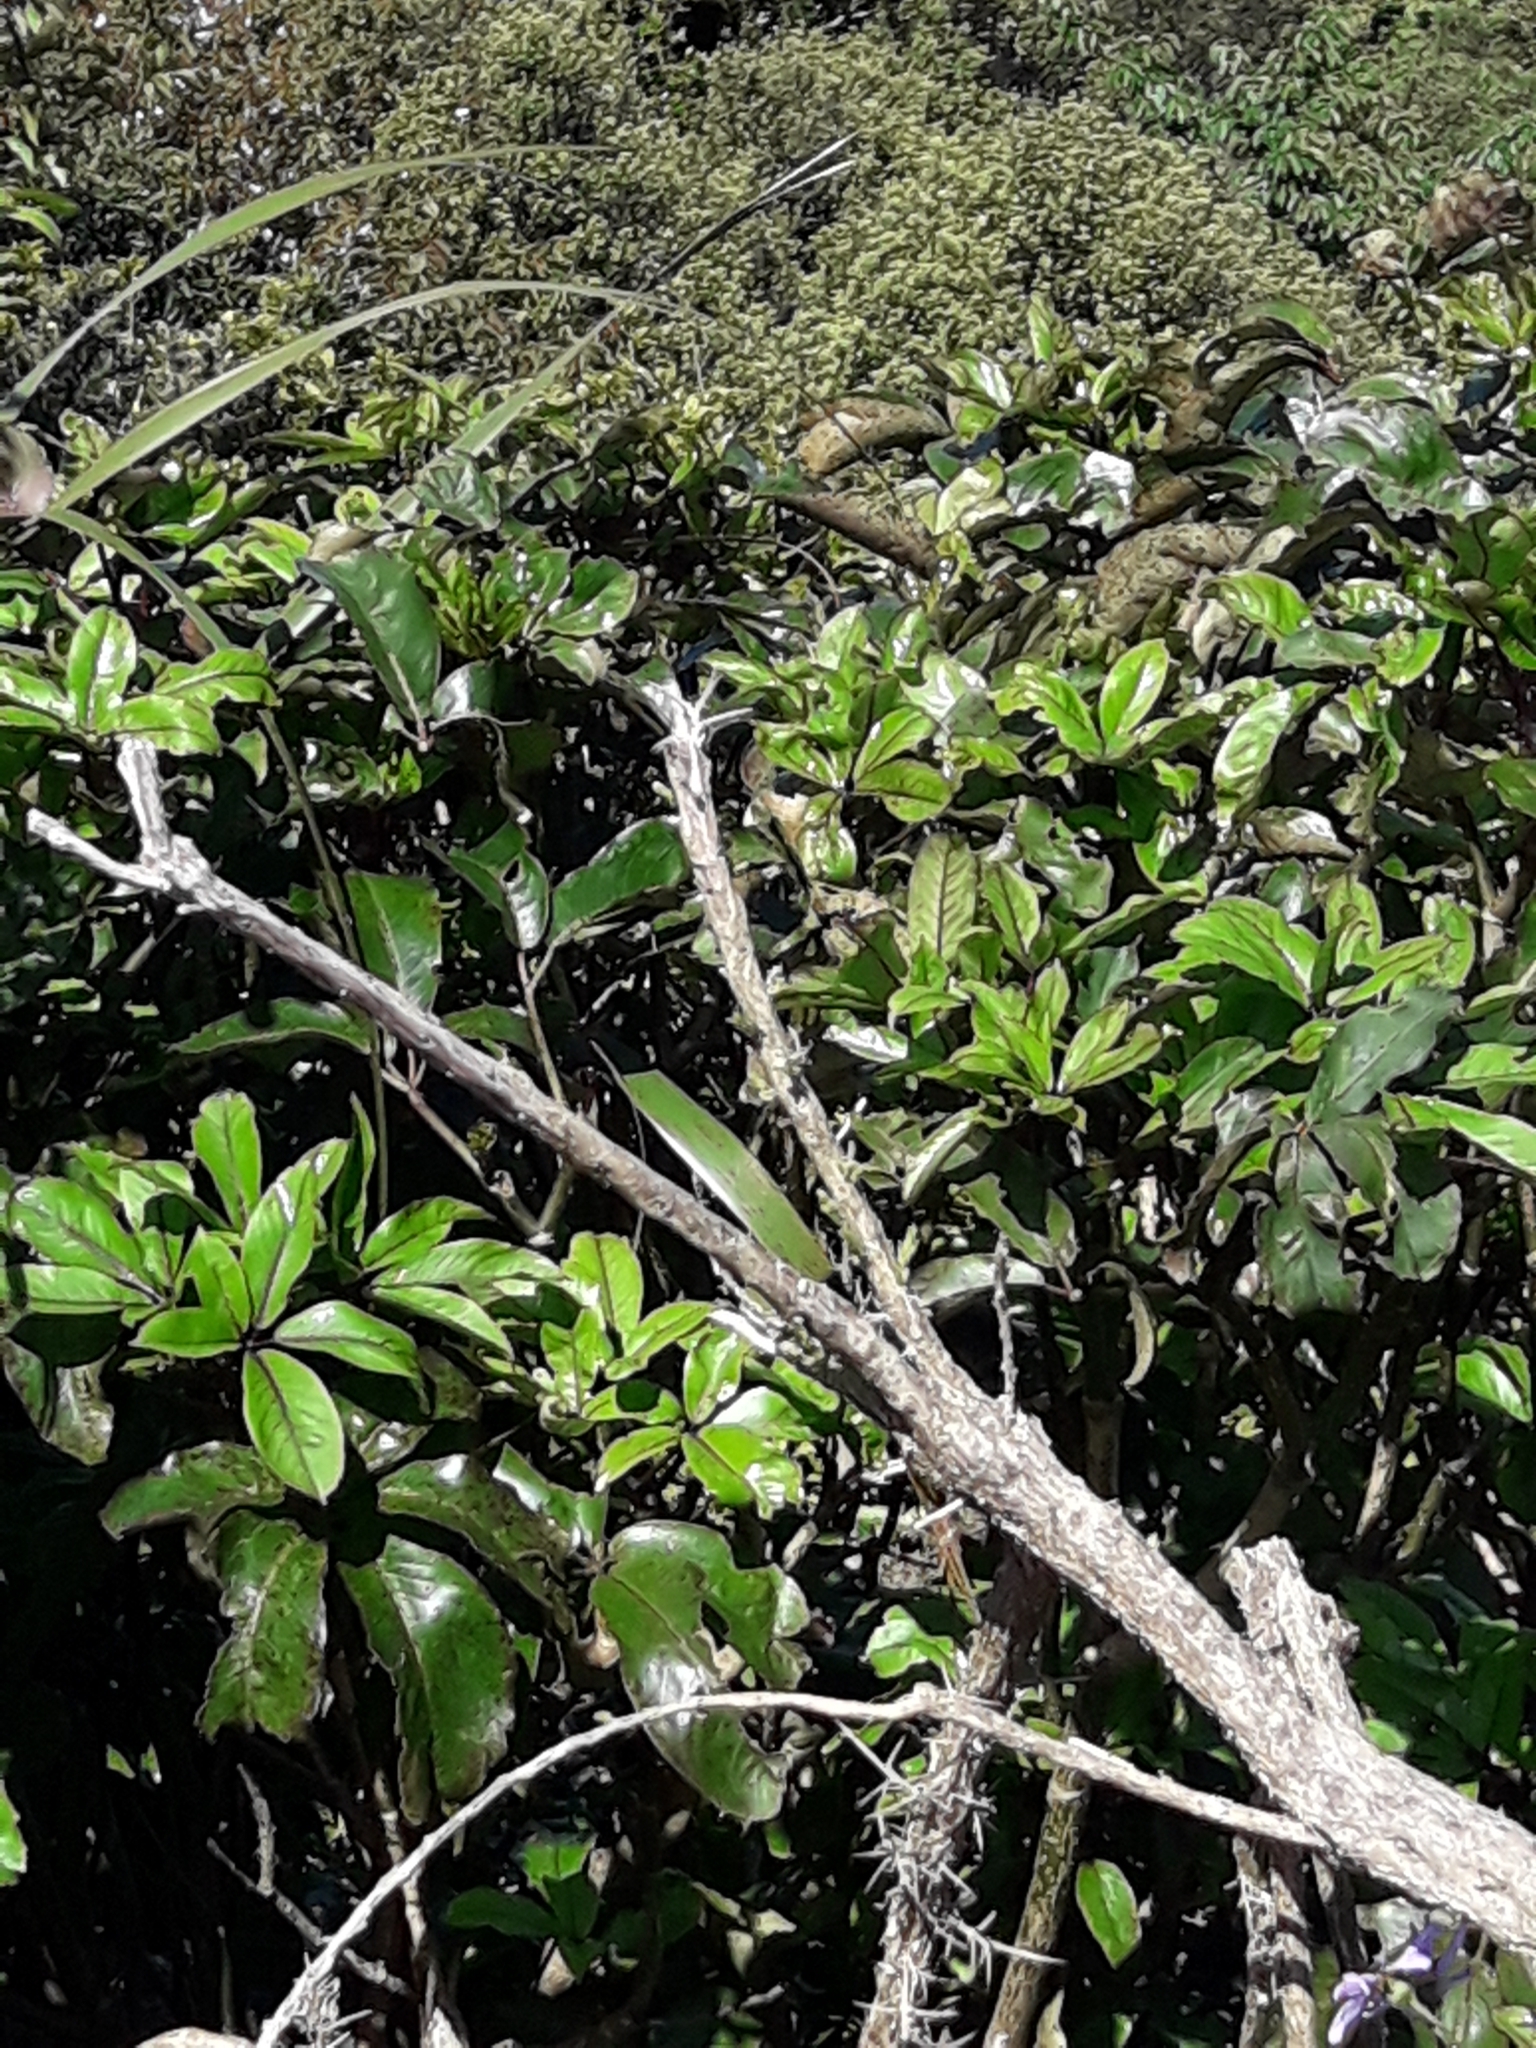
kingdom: Plantae
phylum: Tracheophyta
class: Magnoliopsida
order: Apiales
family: Araliaceae
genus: Neopanax
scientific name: Neopanax laetus
